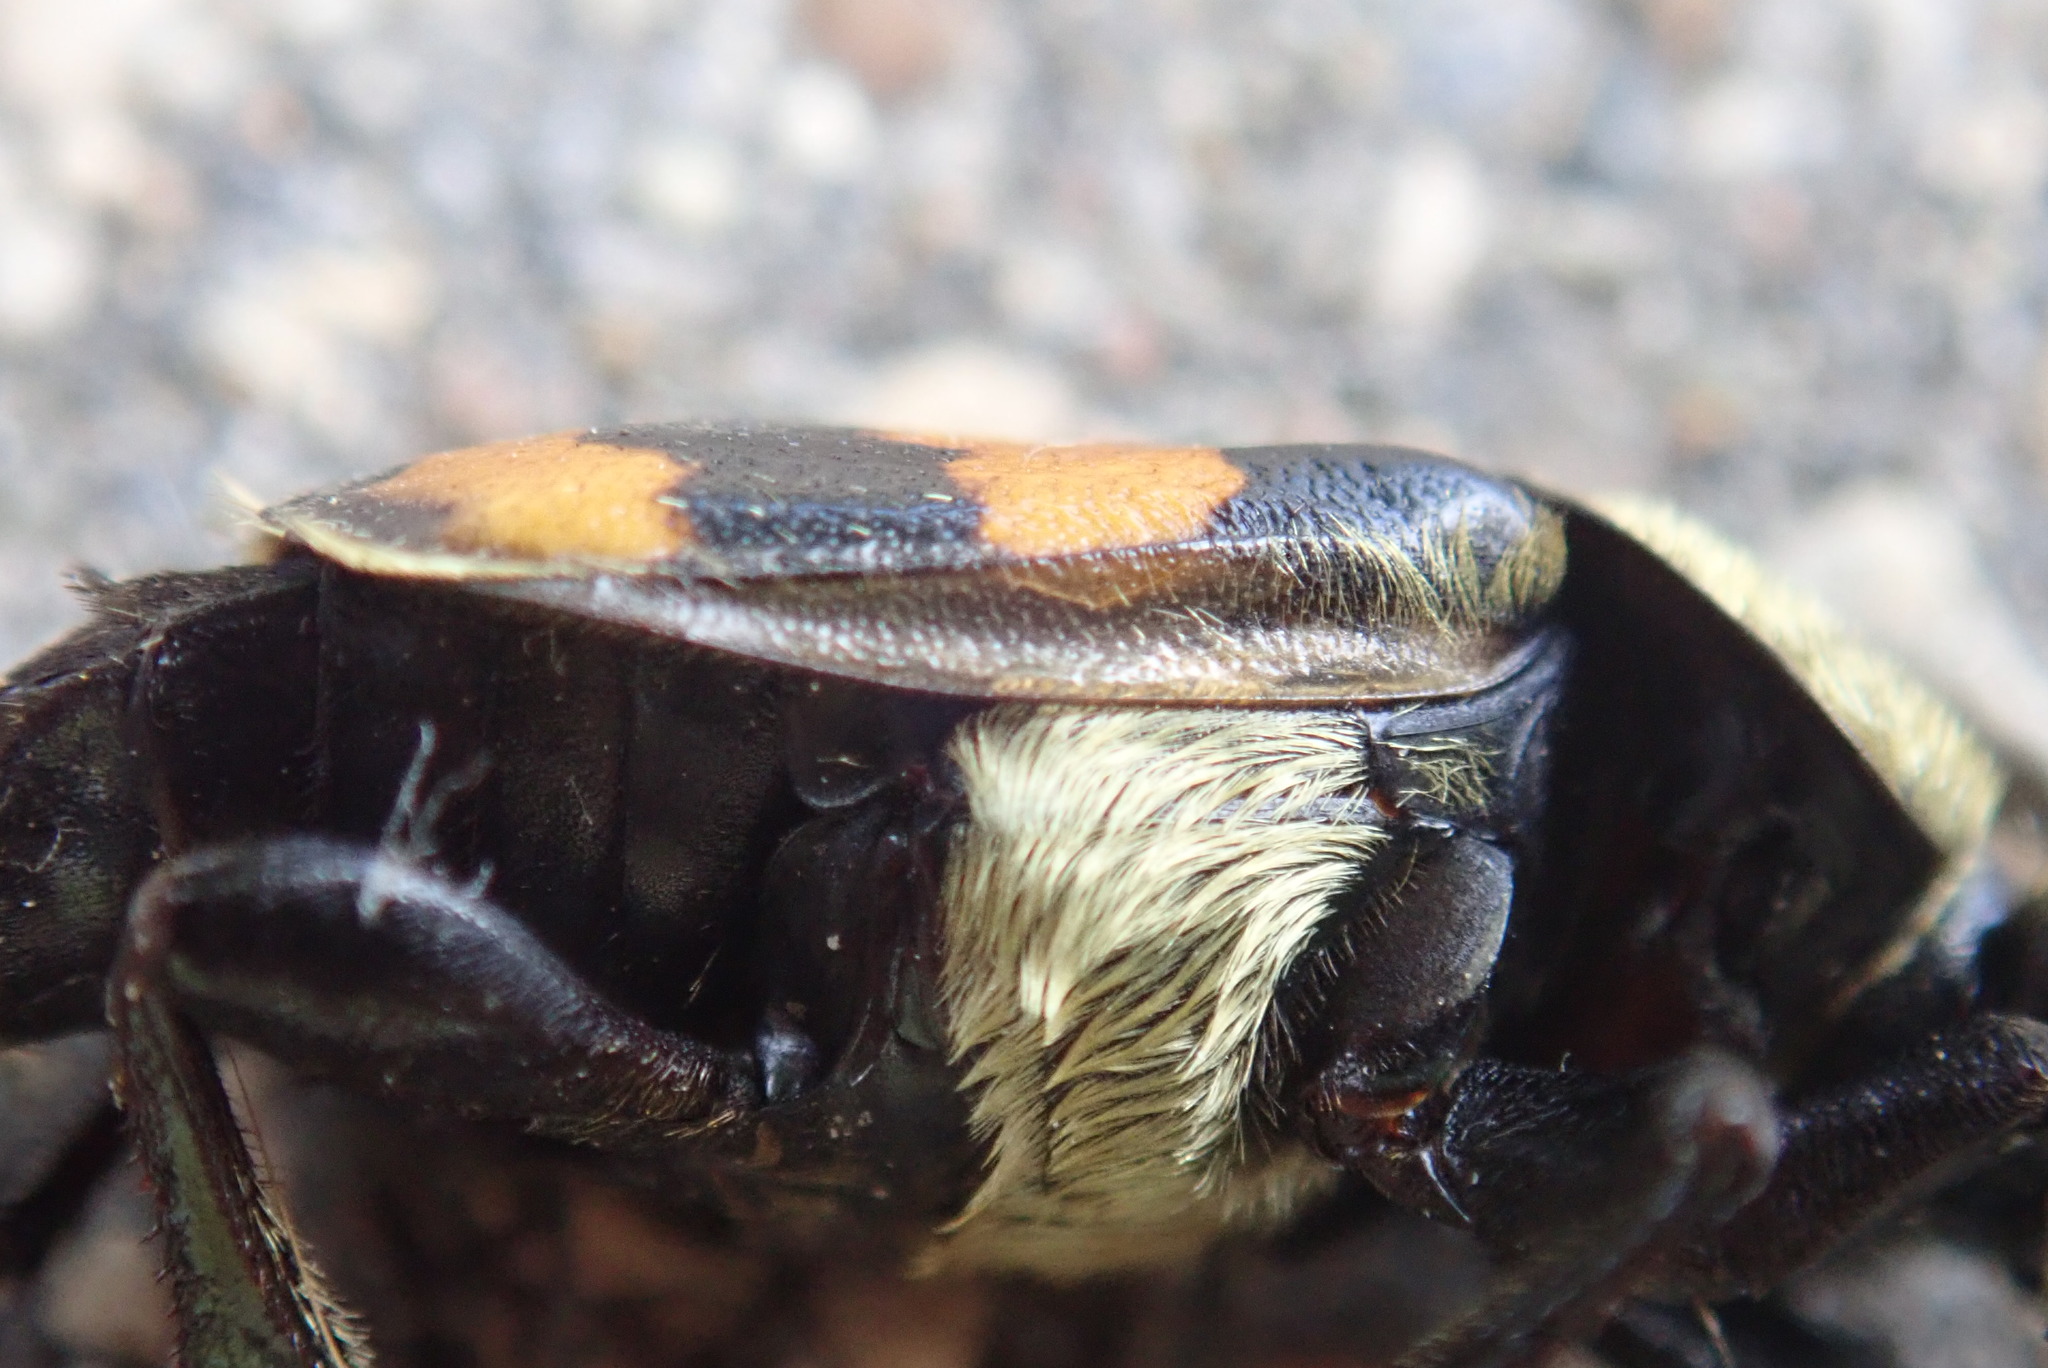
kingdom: Animalia
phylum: Arthropoda
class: Insecta
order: Coleoptera
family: Staphylinidae
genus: Nicrophorus
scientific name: Nicrophorus tomentosus
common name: Tomentose burying beetle
